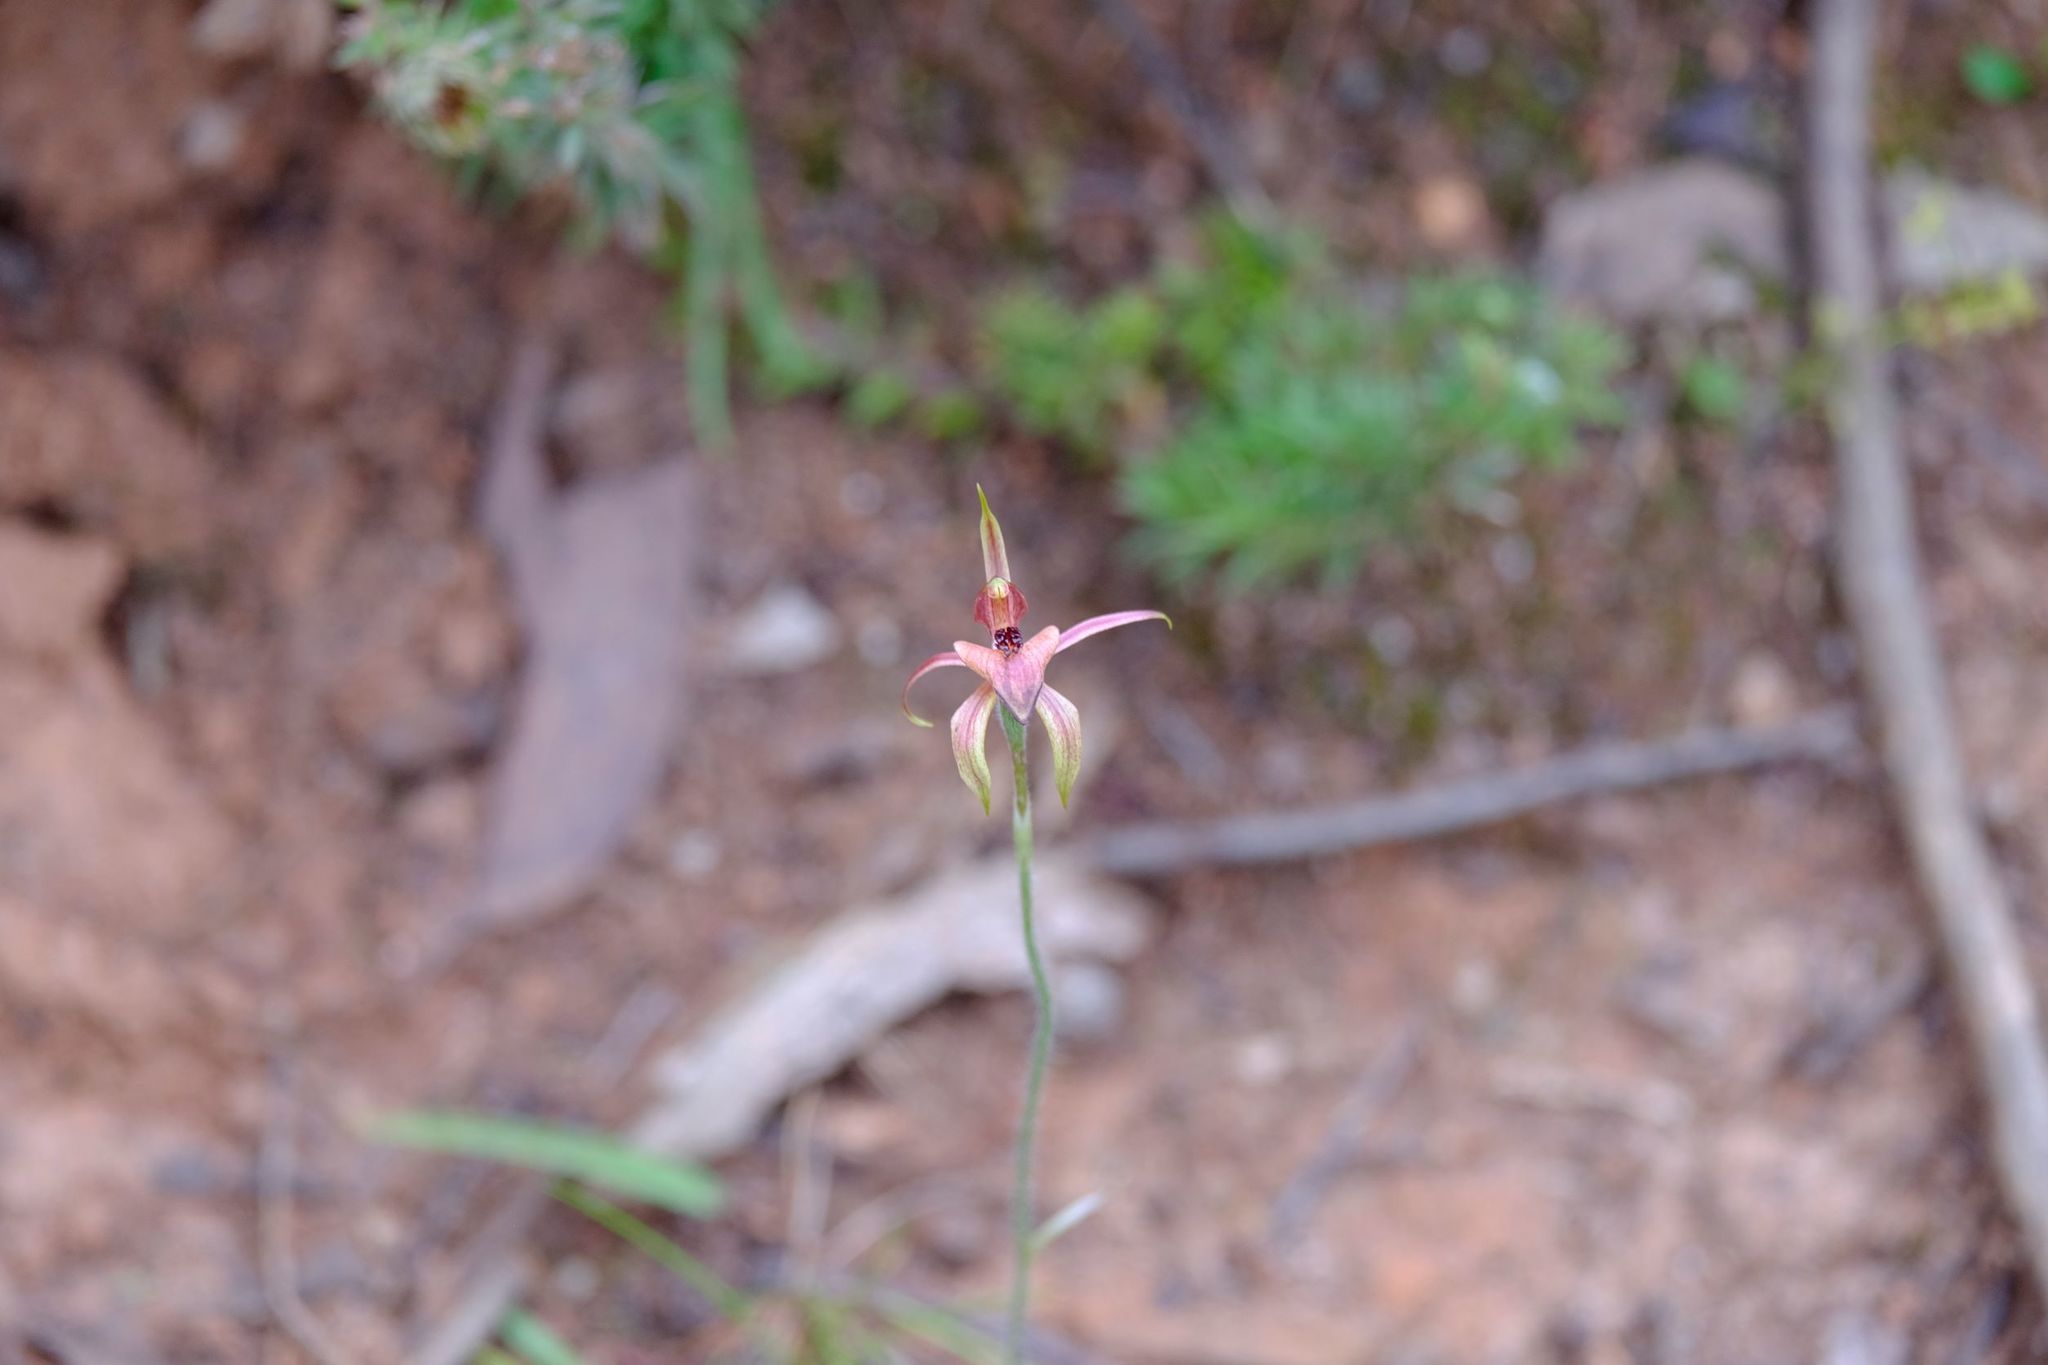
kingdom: Plantae
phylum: Tracheophyta
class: Liliopsida
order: Asparagales
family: Orchidaceae
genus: Caladenia
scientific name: Caladenia cardiochila
